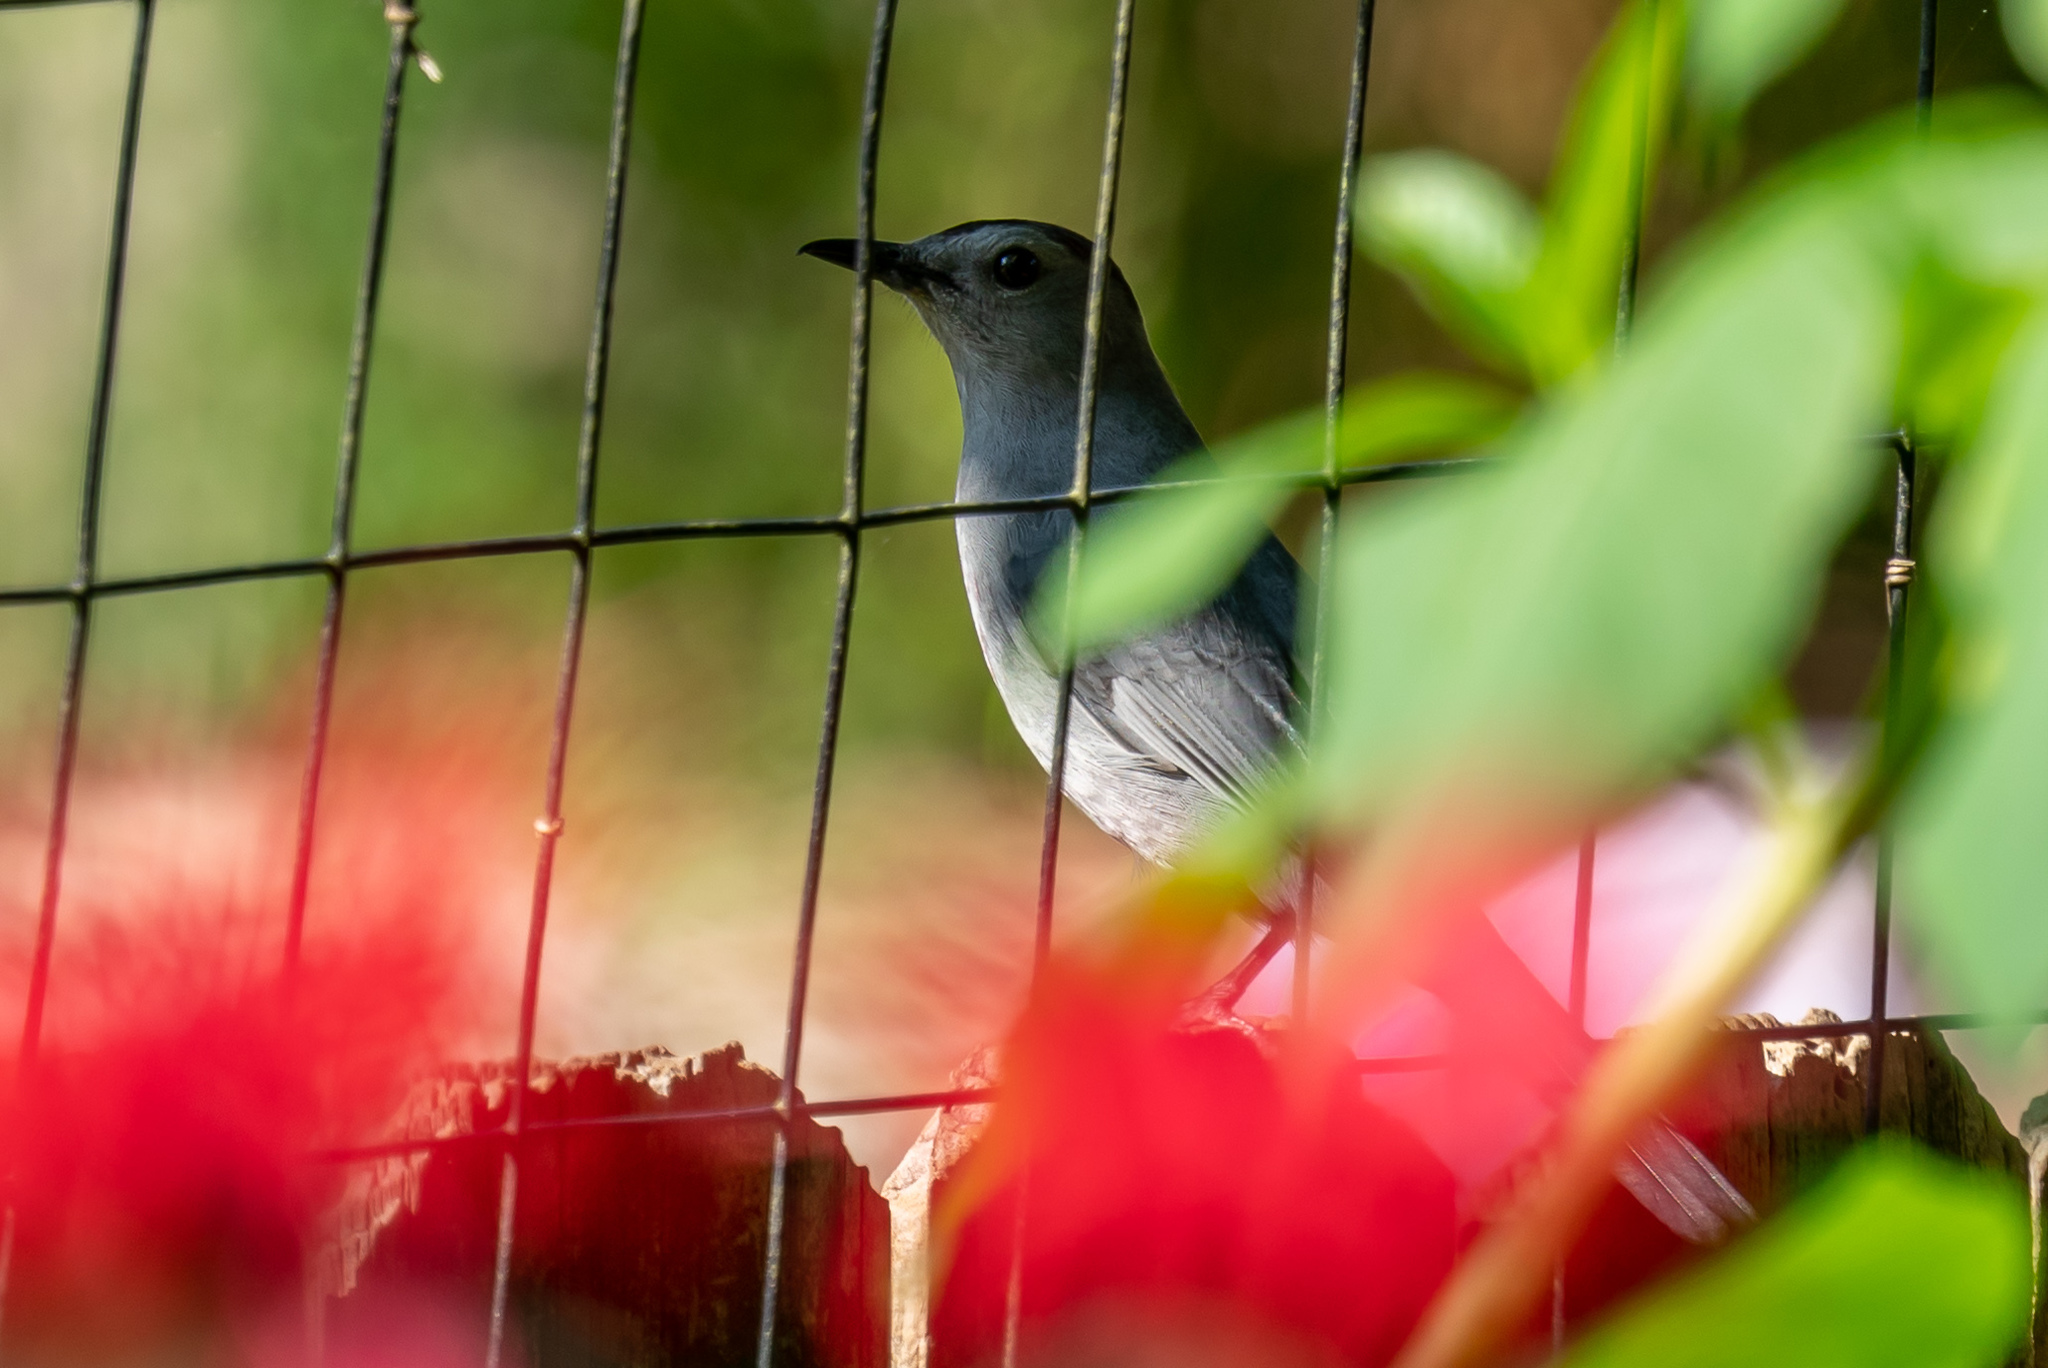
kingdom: Animalia
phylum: Chordata
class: Aves
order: Passeriformes
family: Mimidae
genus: Dumetella
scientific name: Dumetella carolinensis
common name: Gray catbird
